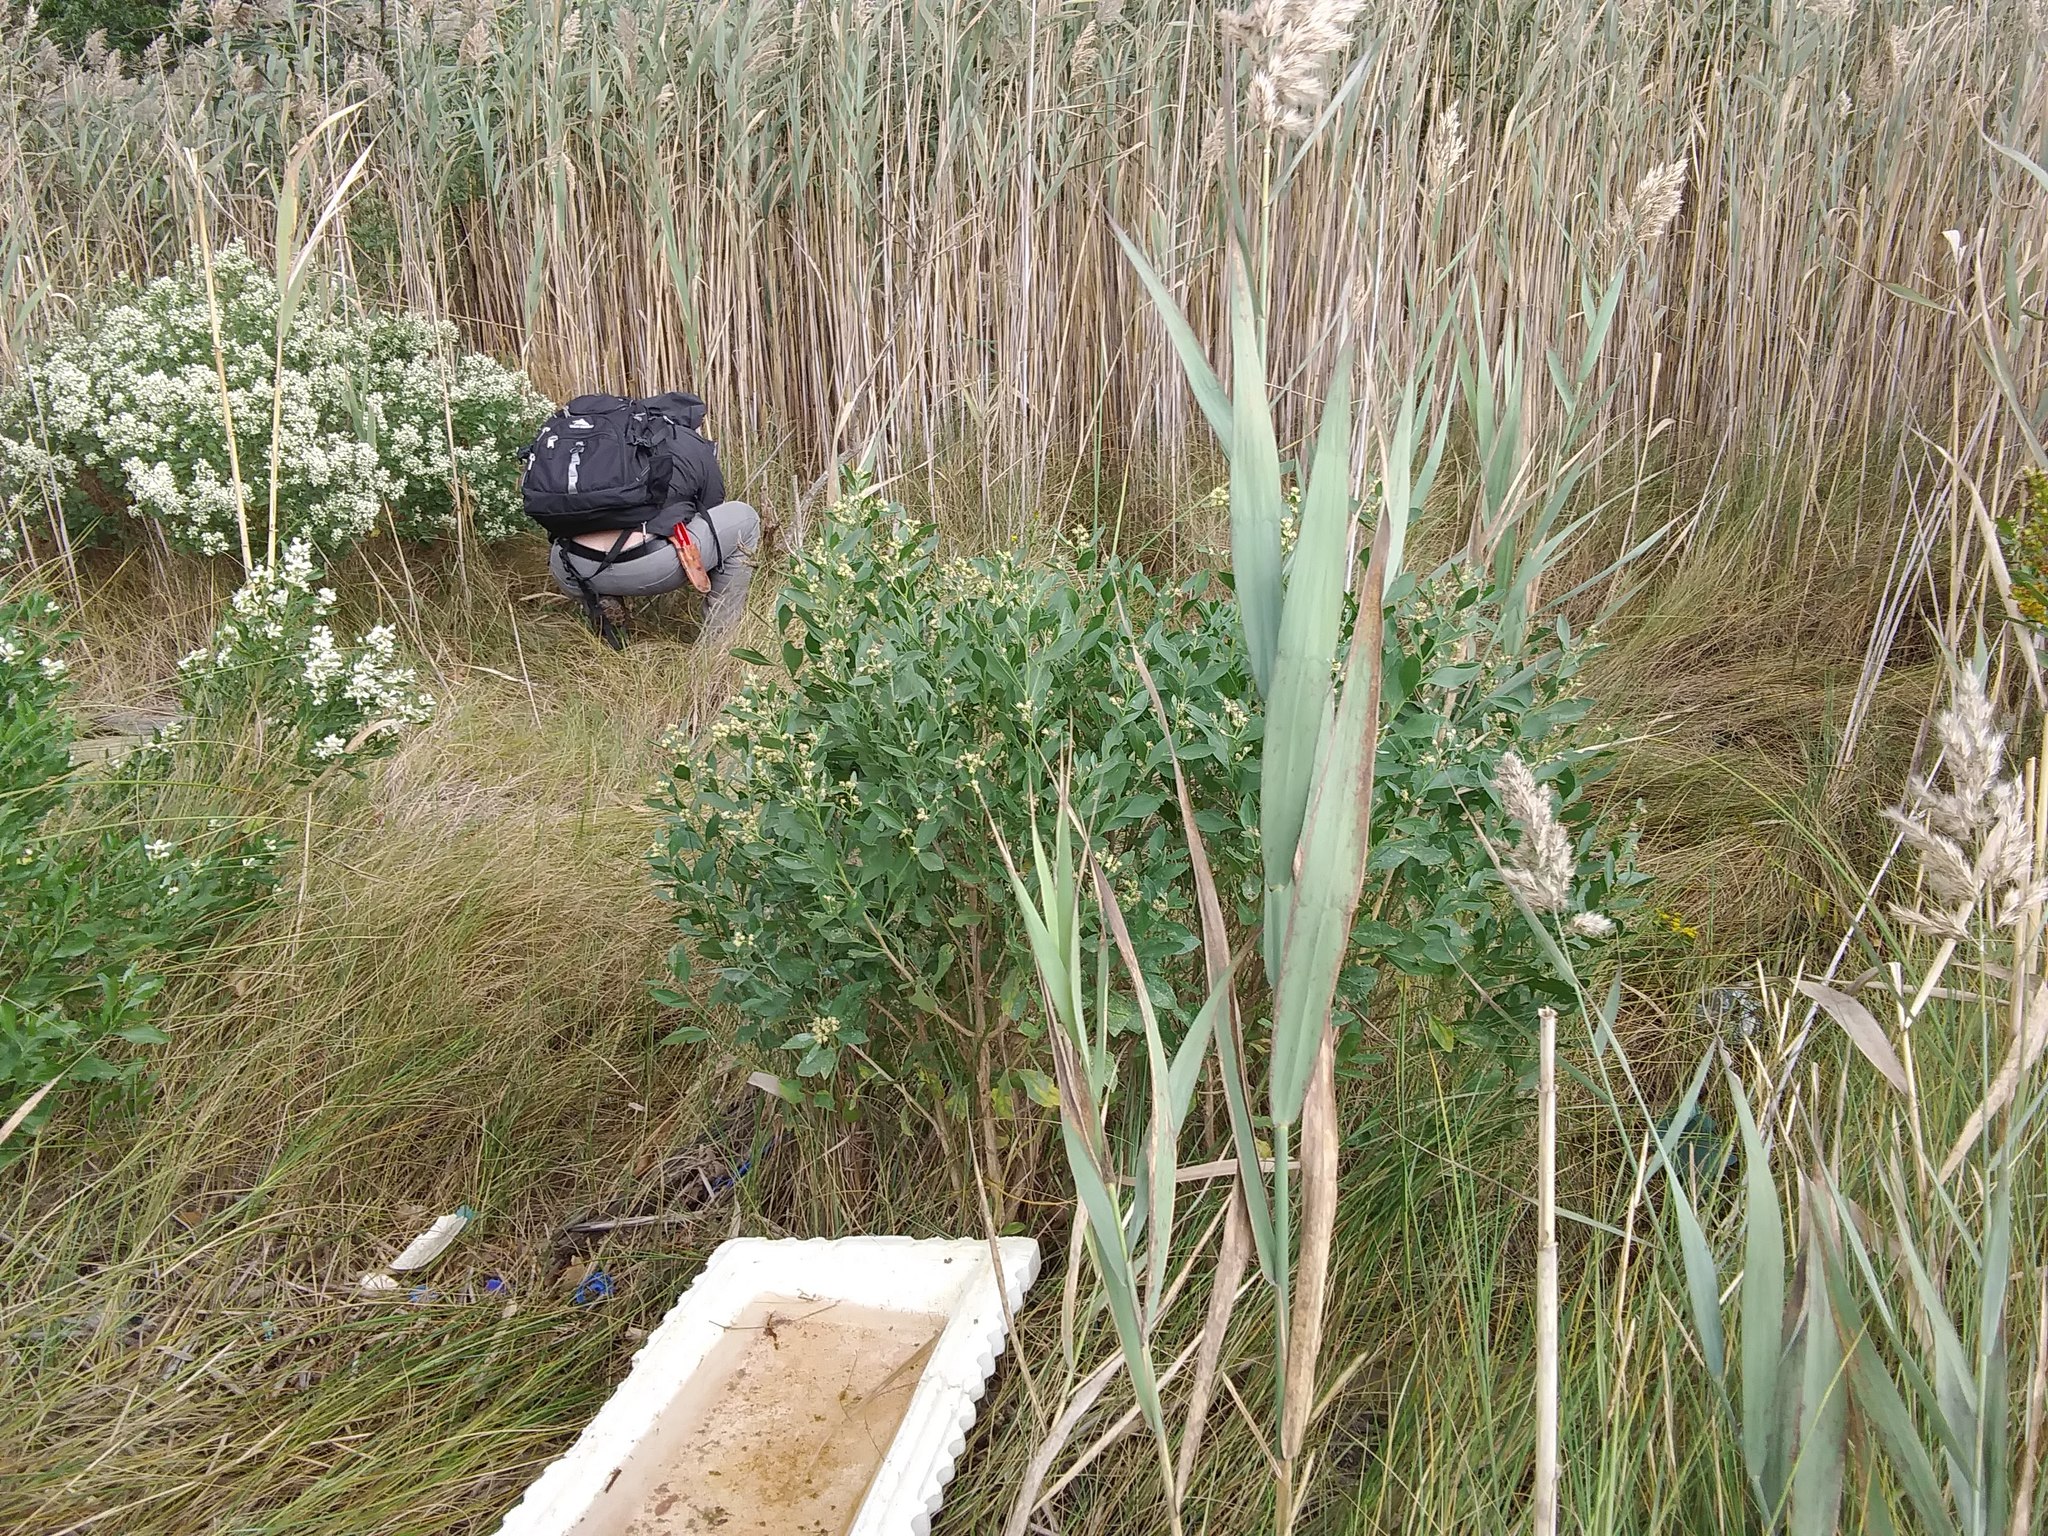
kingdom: Plantae
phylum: Tracheophyta
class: Magnoliopsida
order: Asterales
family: Asteraceae
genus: Baccharis
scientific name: Baccharis halimifolia
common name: Eastern baccharis
